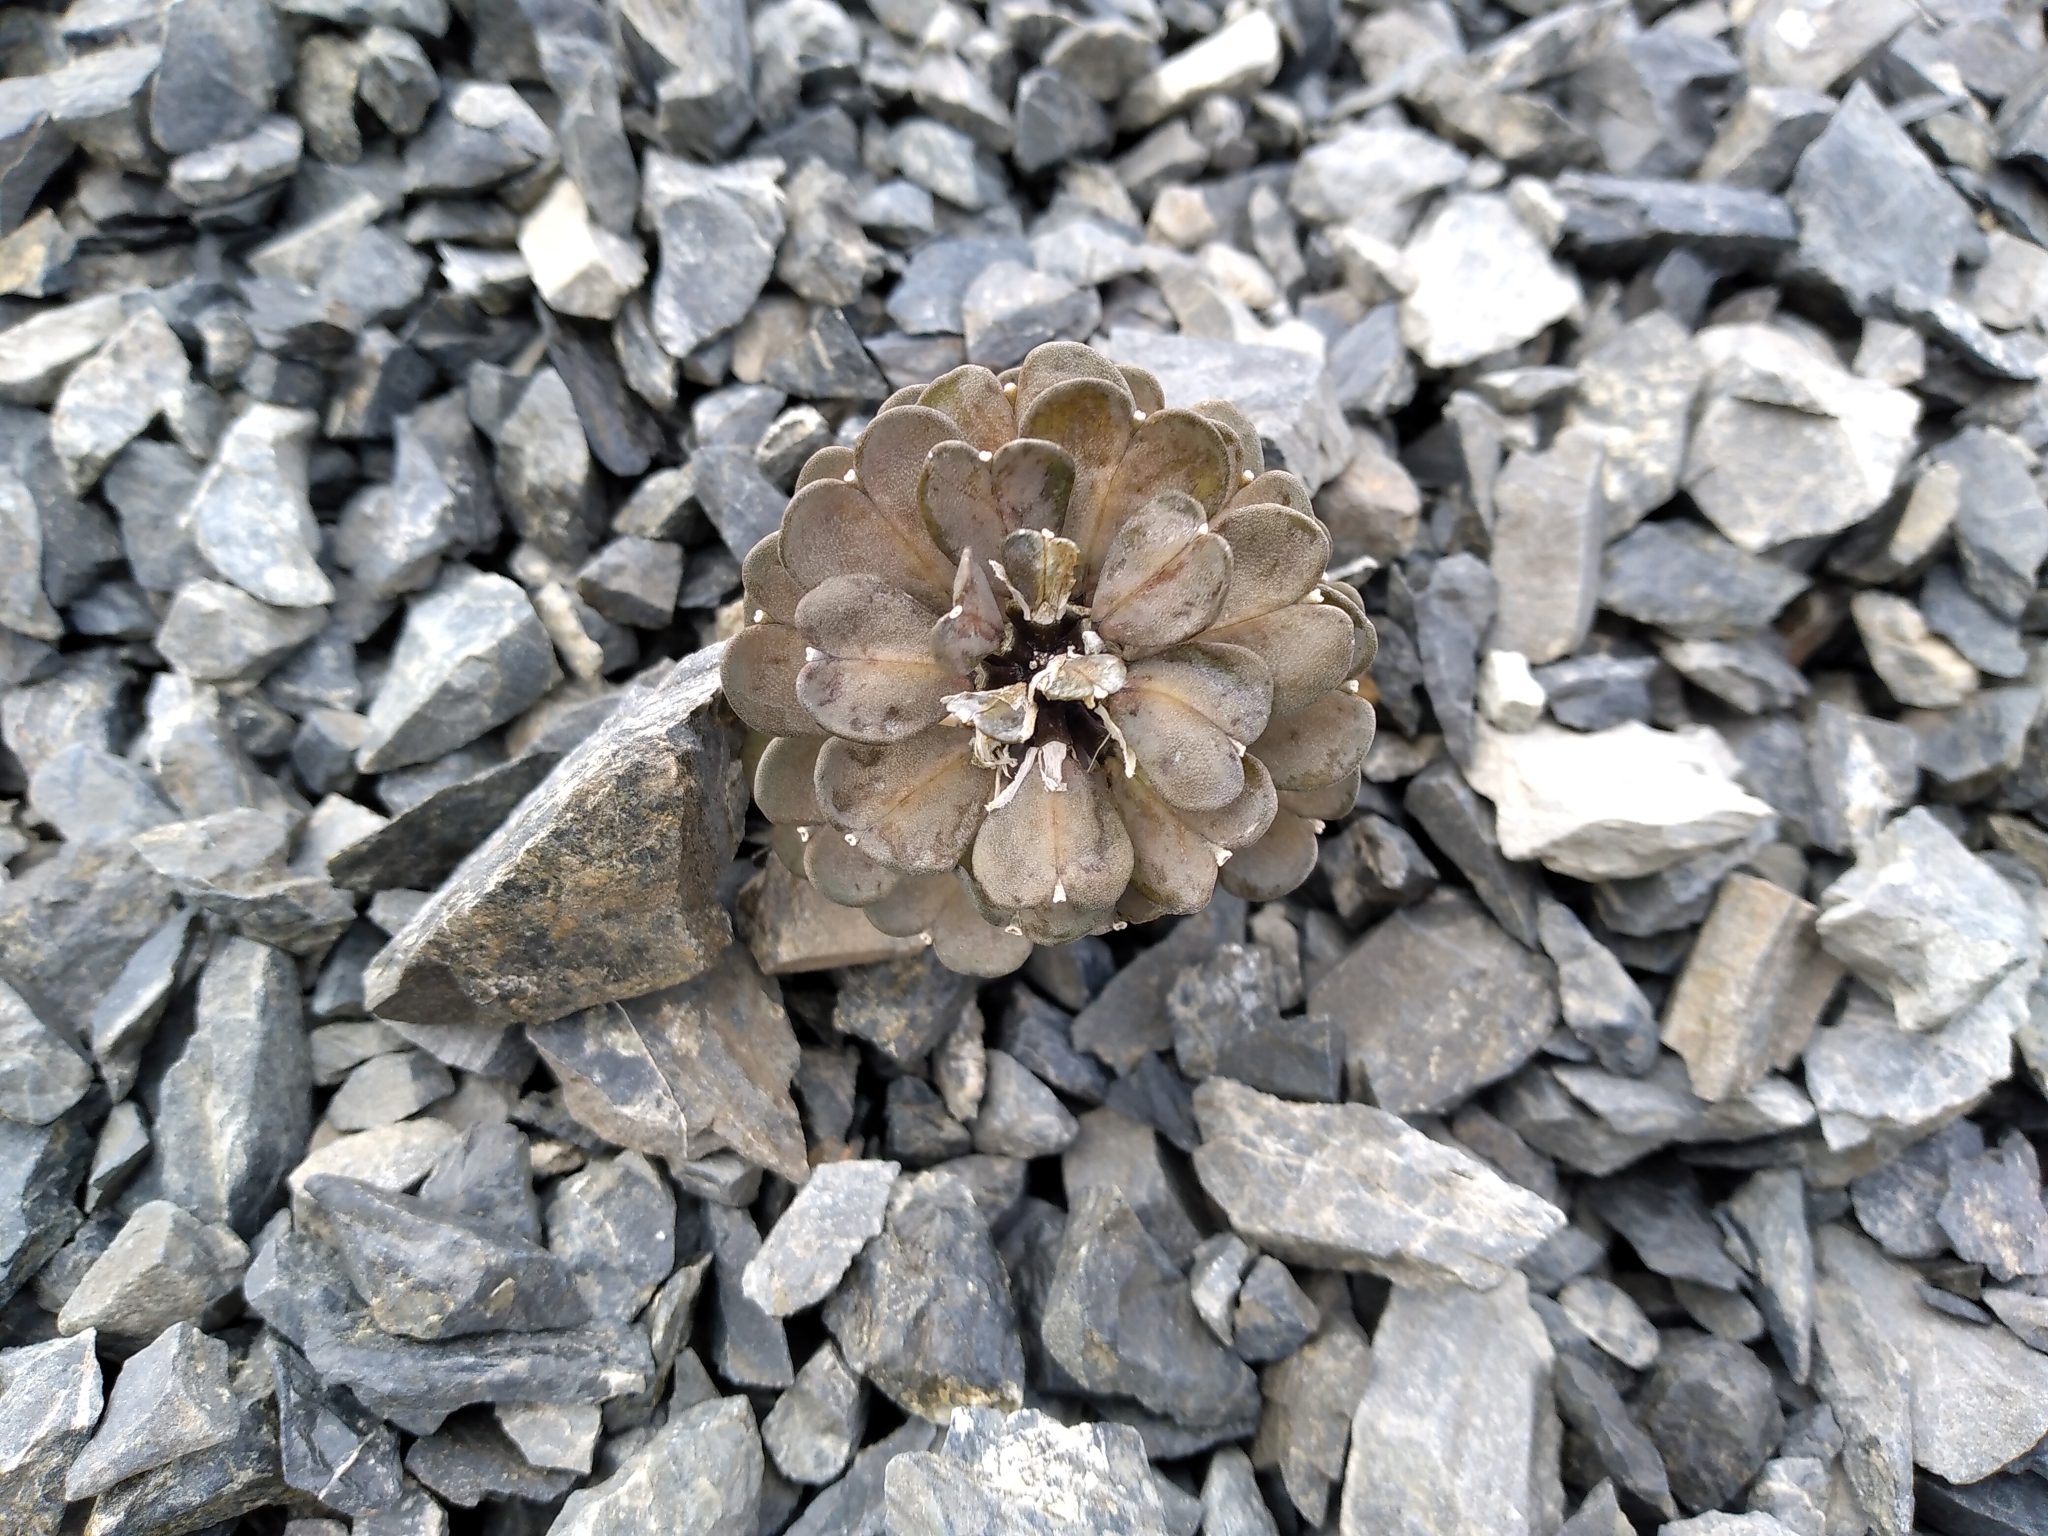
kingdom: Plantae
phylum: Tracheophyta
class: Magnoliopsida
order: Brassicales
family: Brassicaceae
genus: Notothlaspi
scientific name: Notothlaspi rosulatum
